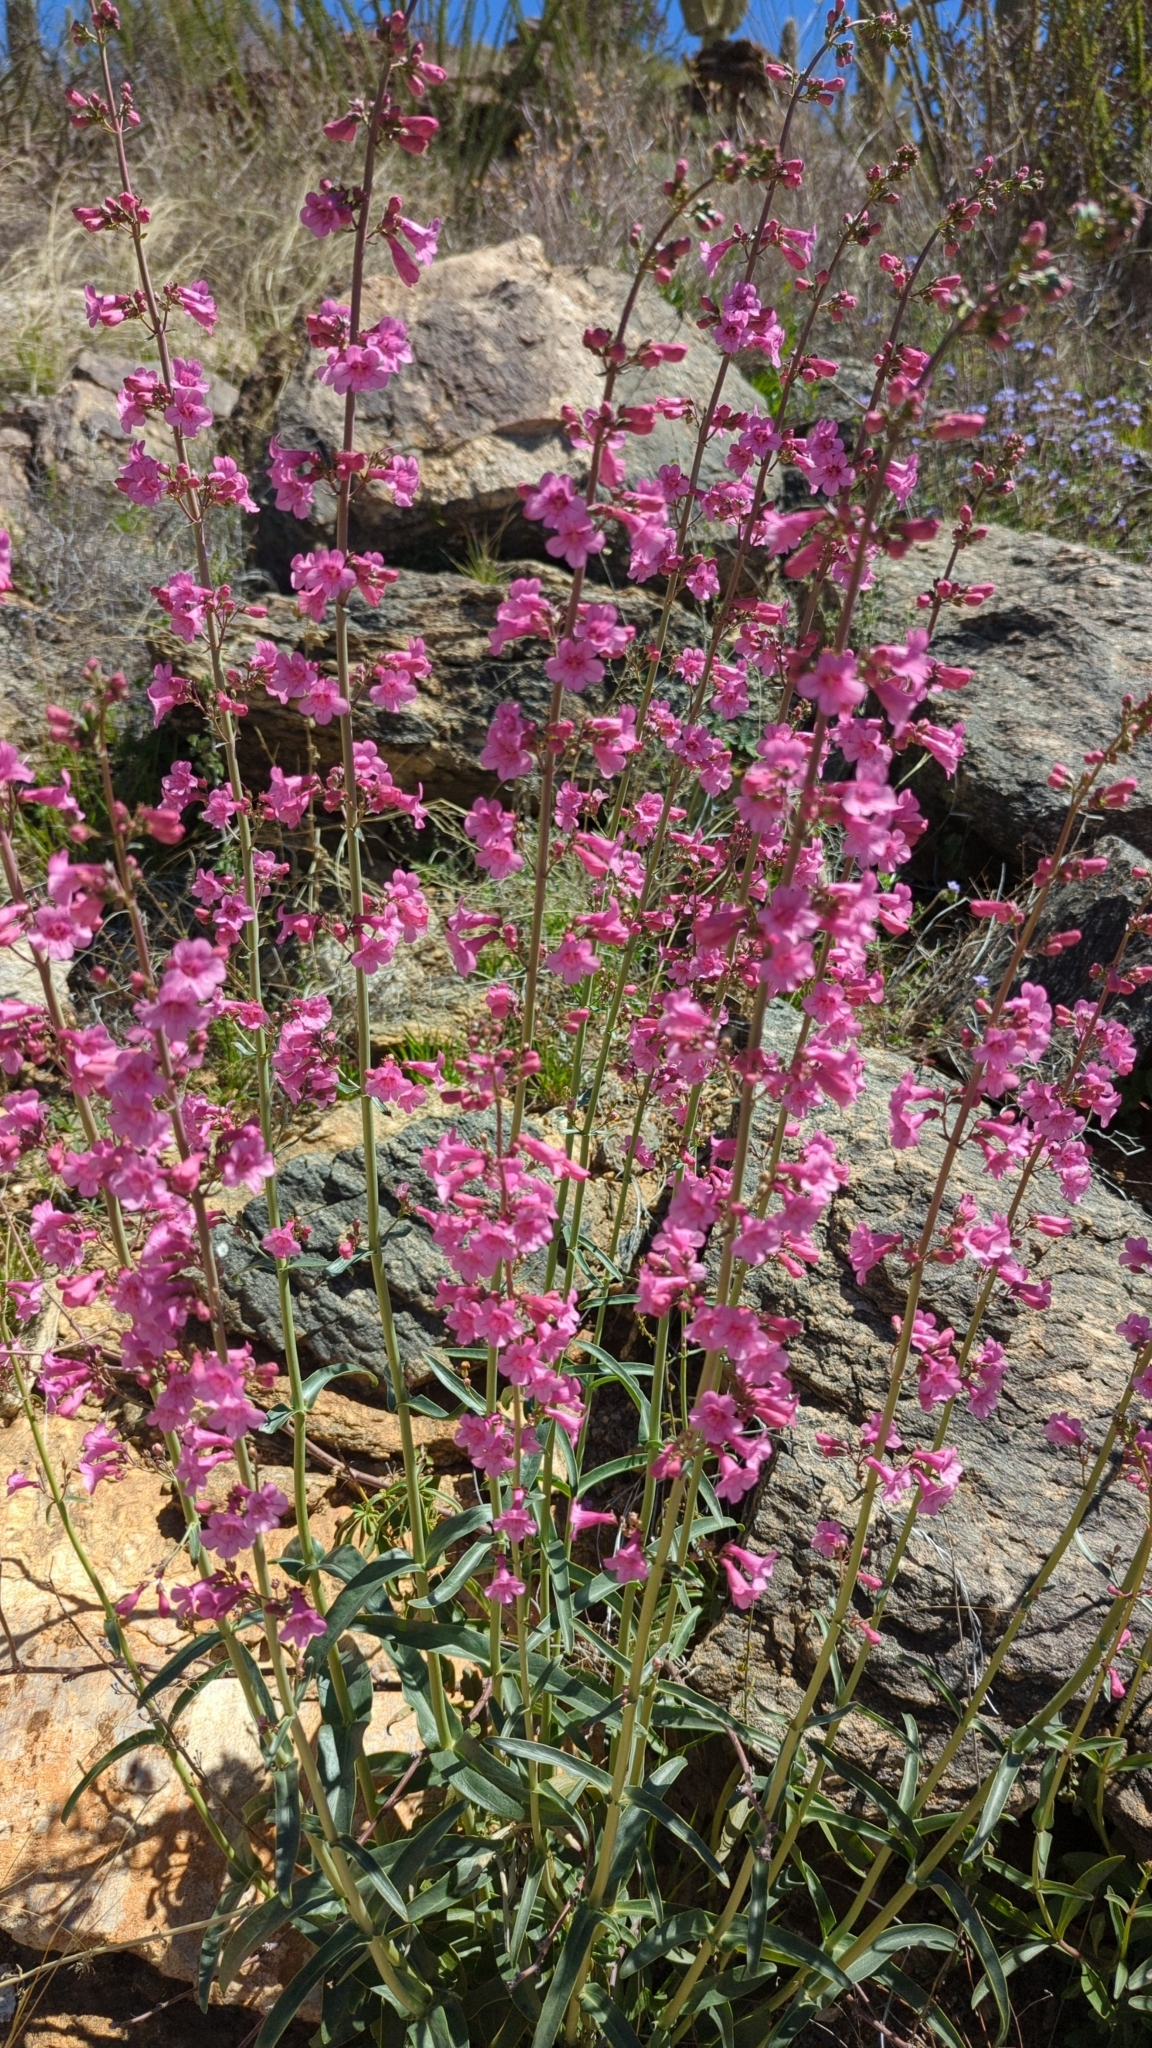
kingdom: Plantae
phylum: Tracheophyta
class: Magnoliopsida
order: Lamiales
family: Plantaginaceae
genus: Penstemon
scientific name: Penstemon parryi
